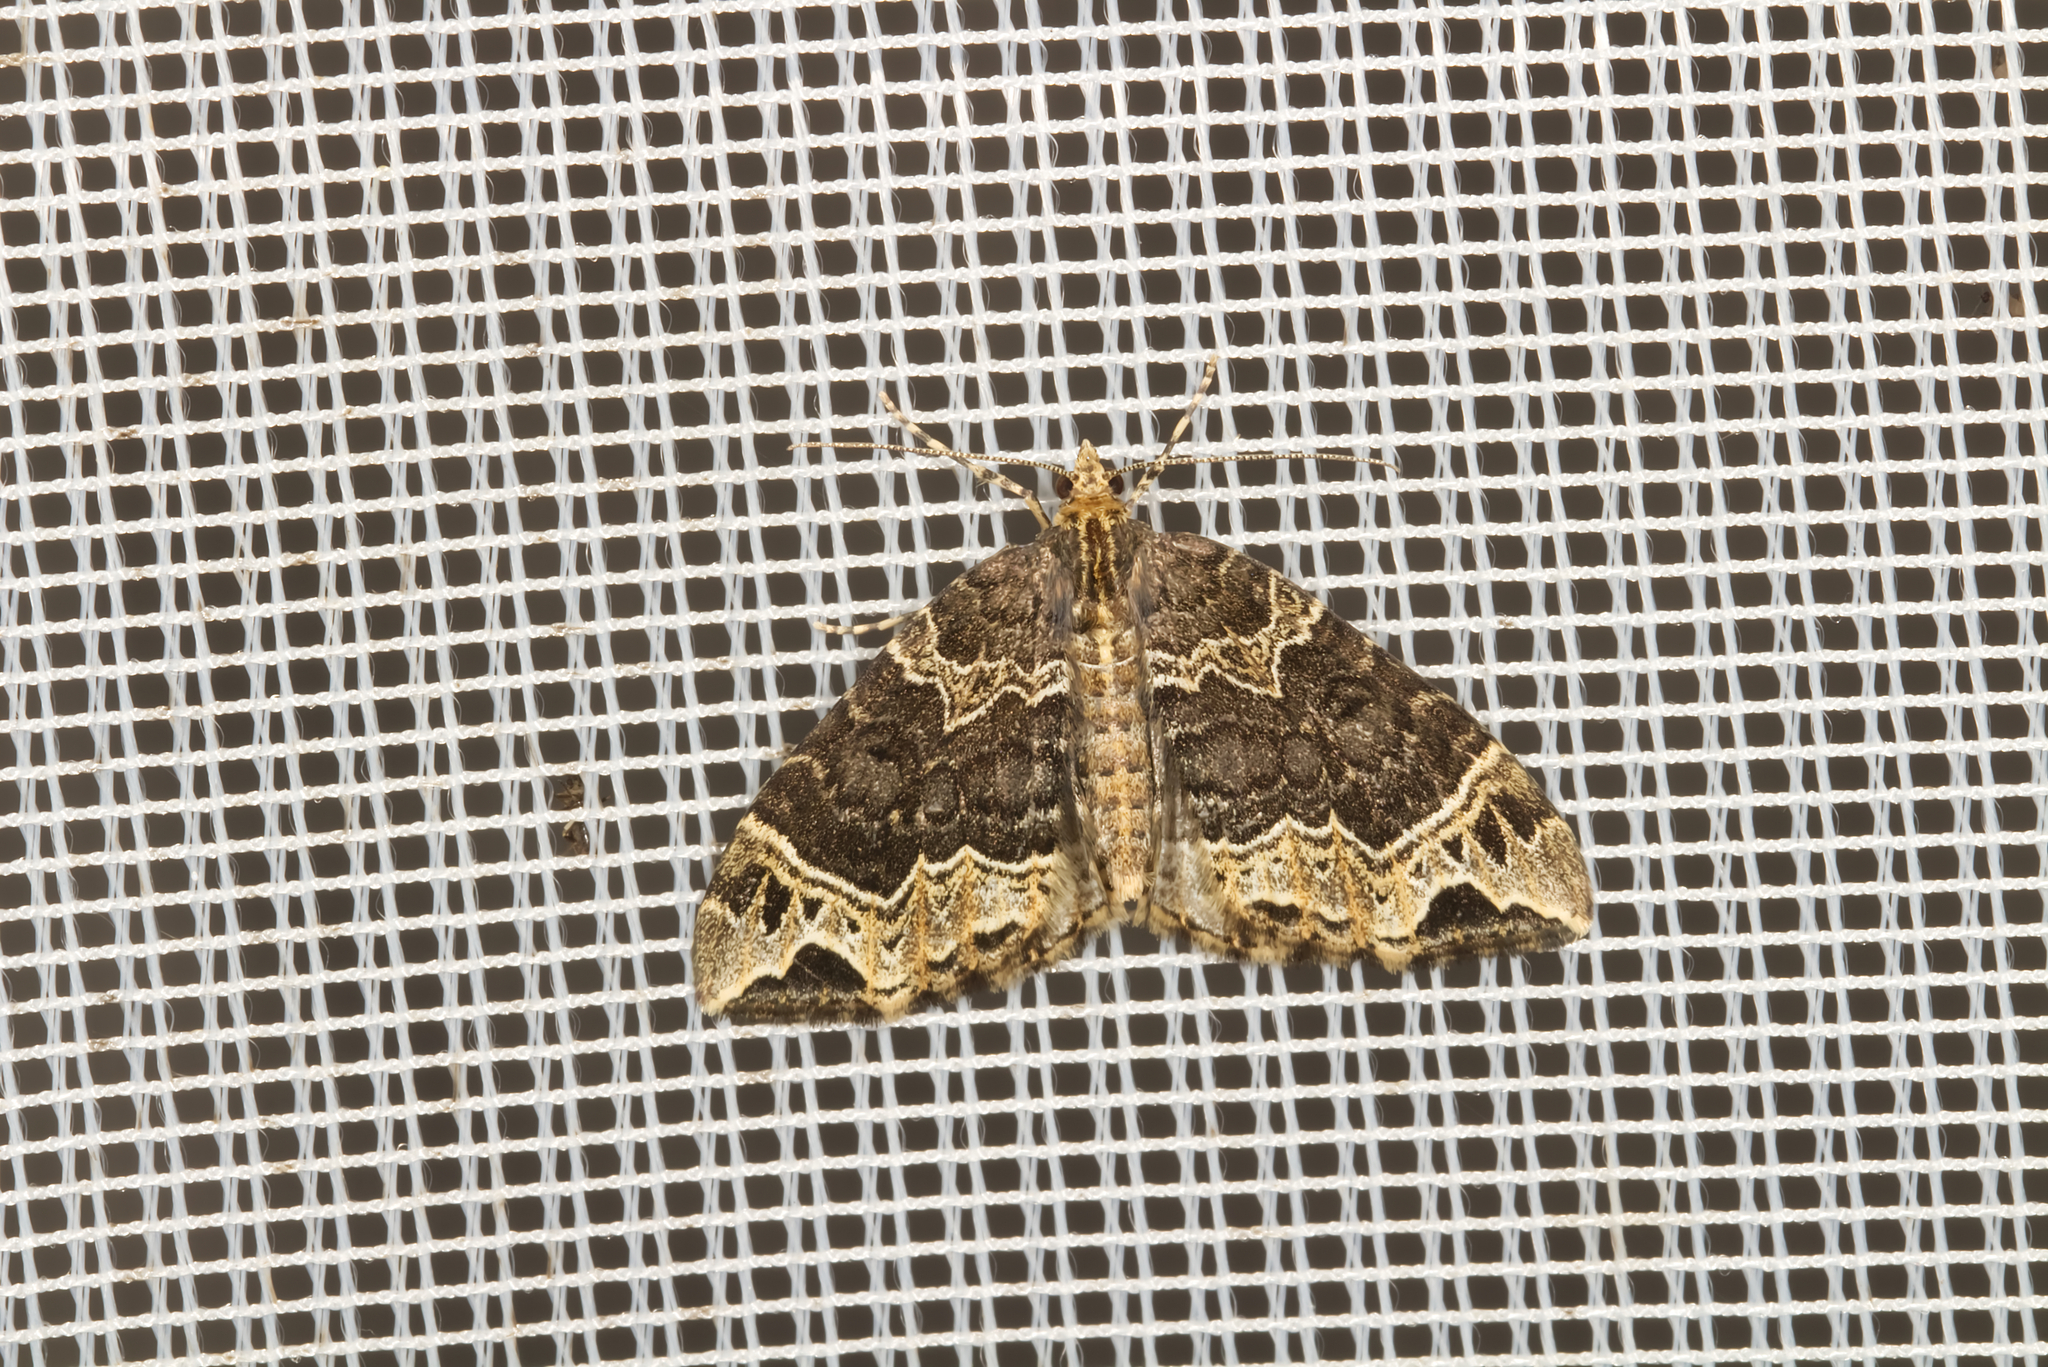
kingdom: Animalia
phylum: Arthropoda
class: Insecta
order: Lepidoptera
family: Geometridae
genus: Ecliptopera
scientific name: Ecliptopera silaceata
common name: Small phoenix
